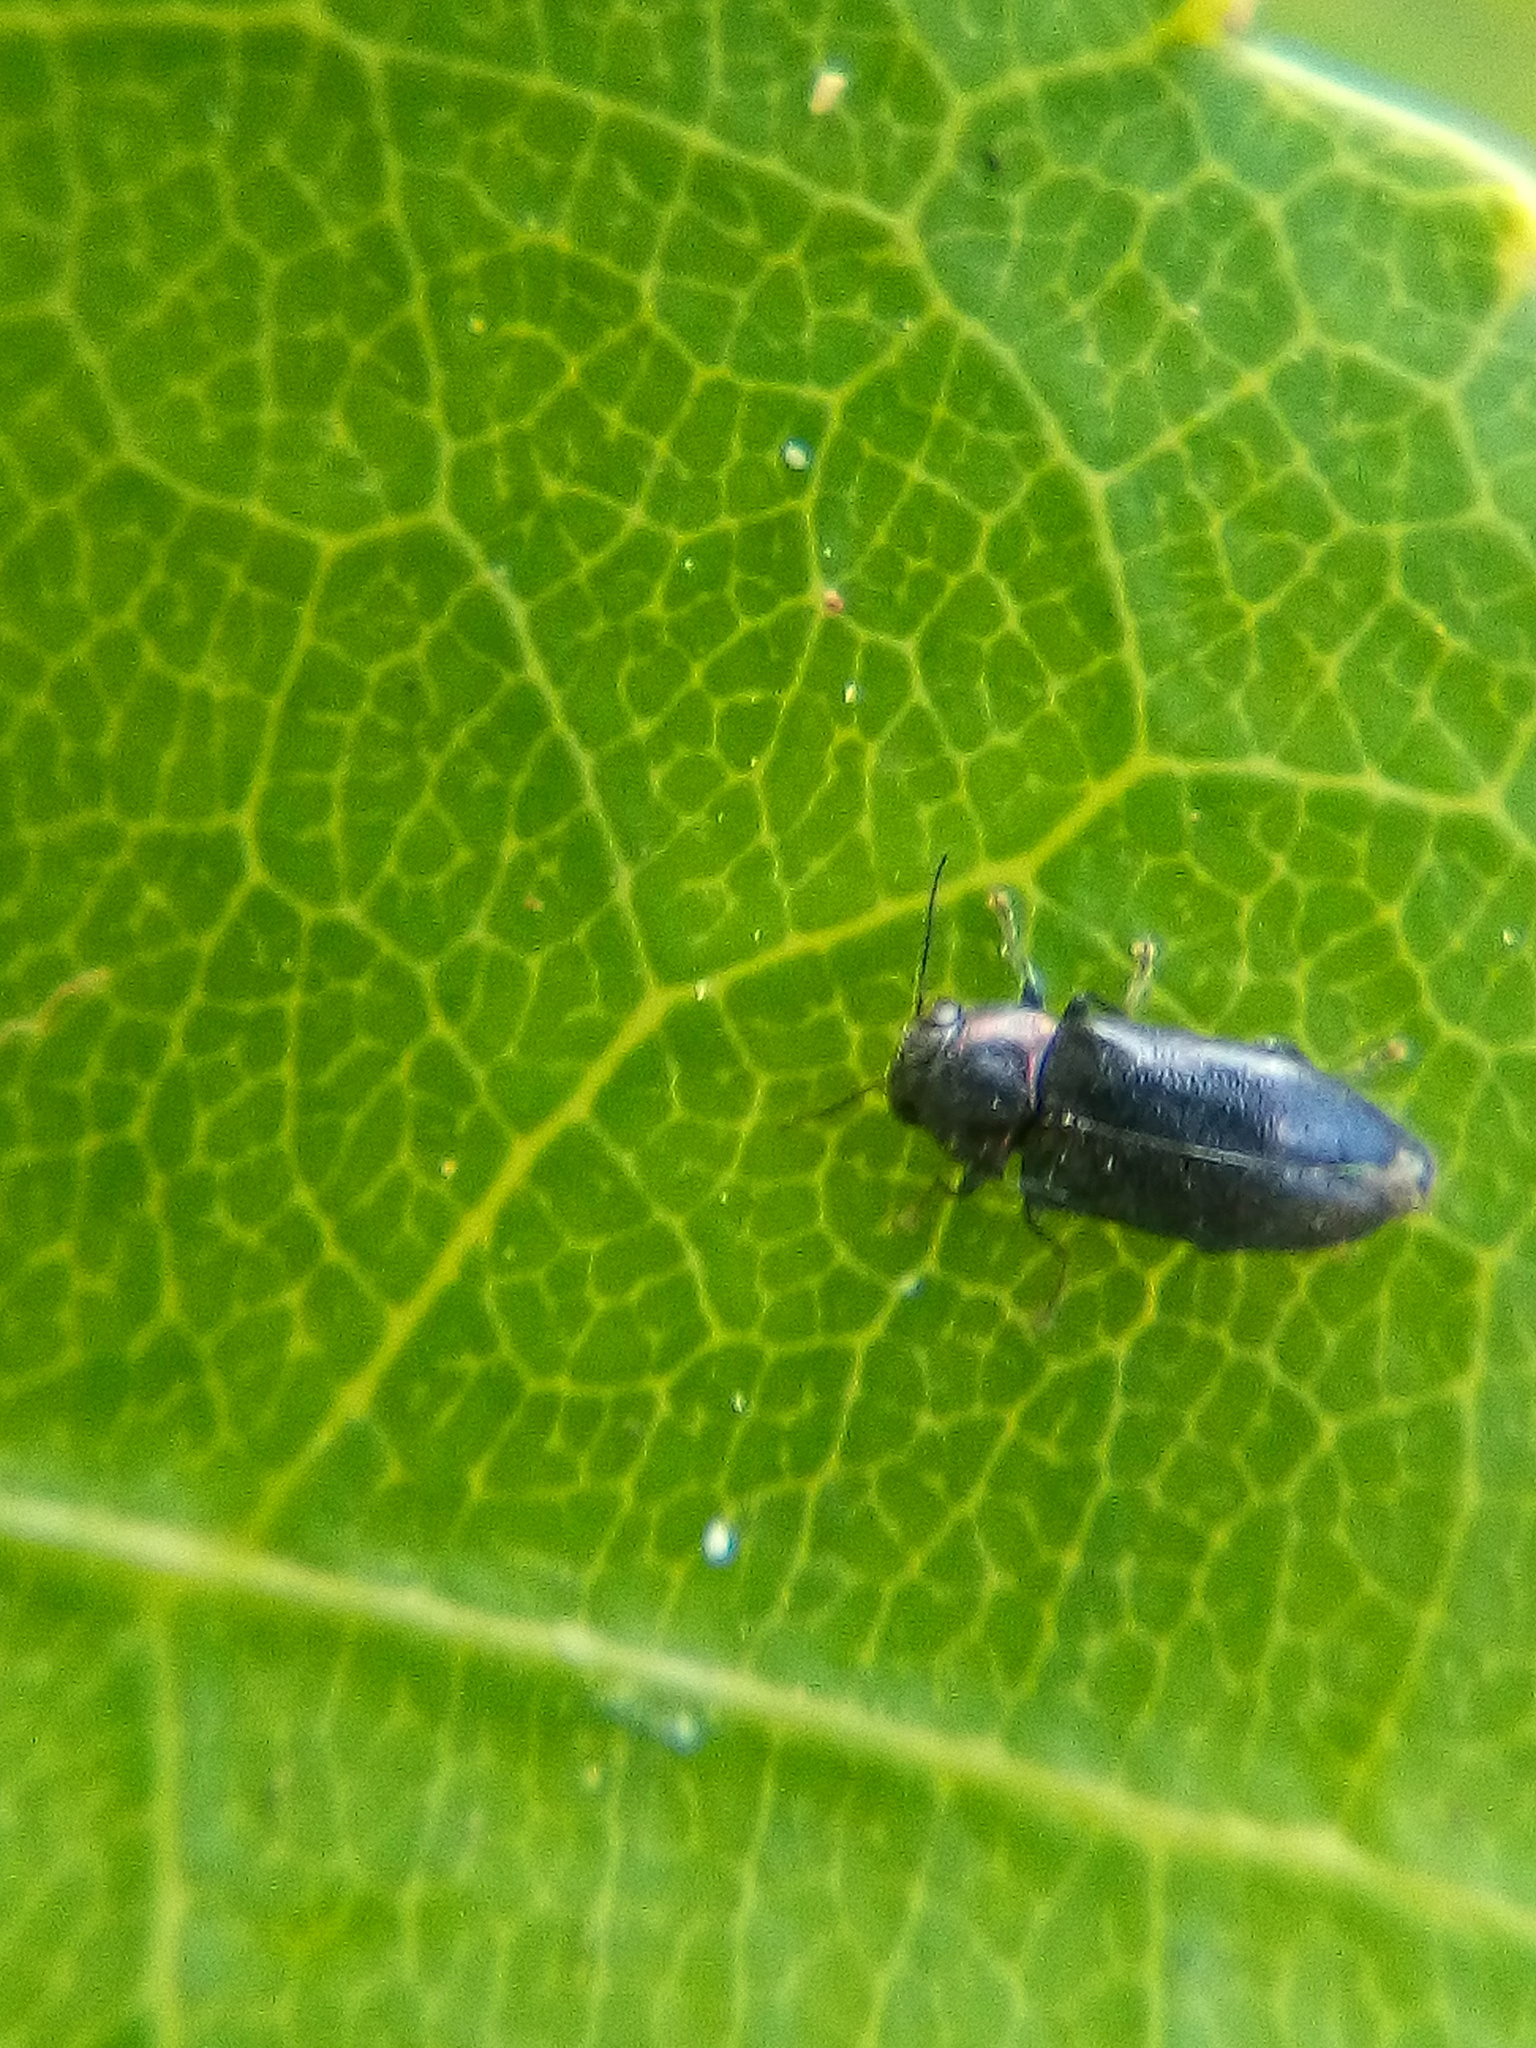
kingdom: Animalia
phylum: Arthropoda
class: Insecta
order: Coleoptera
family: Buprestidae
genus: Maoraxia
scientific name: Maoraxia eremita
